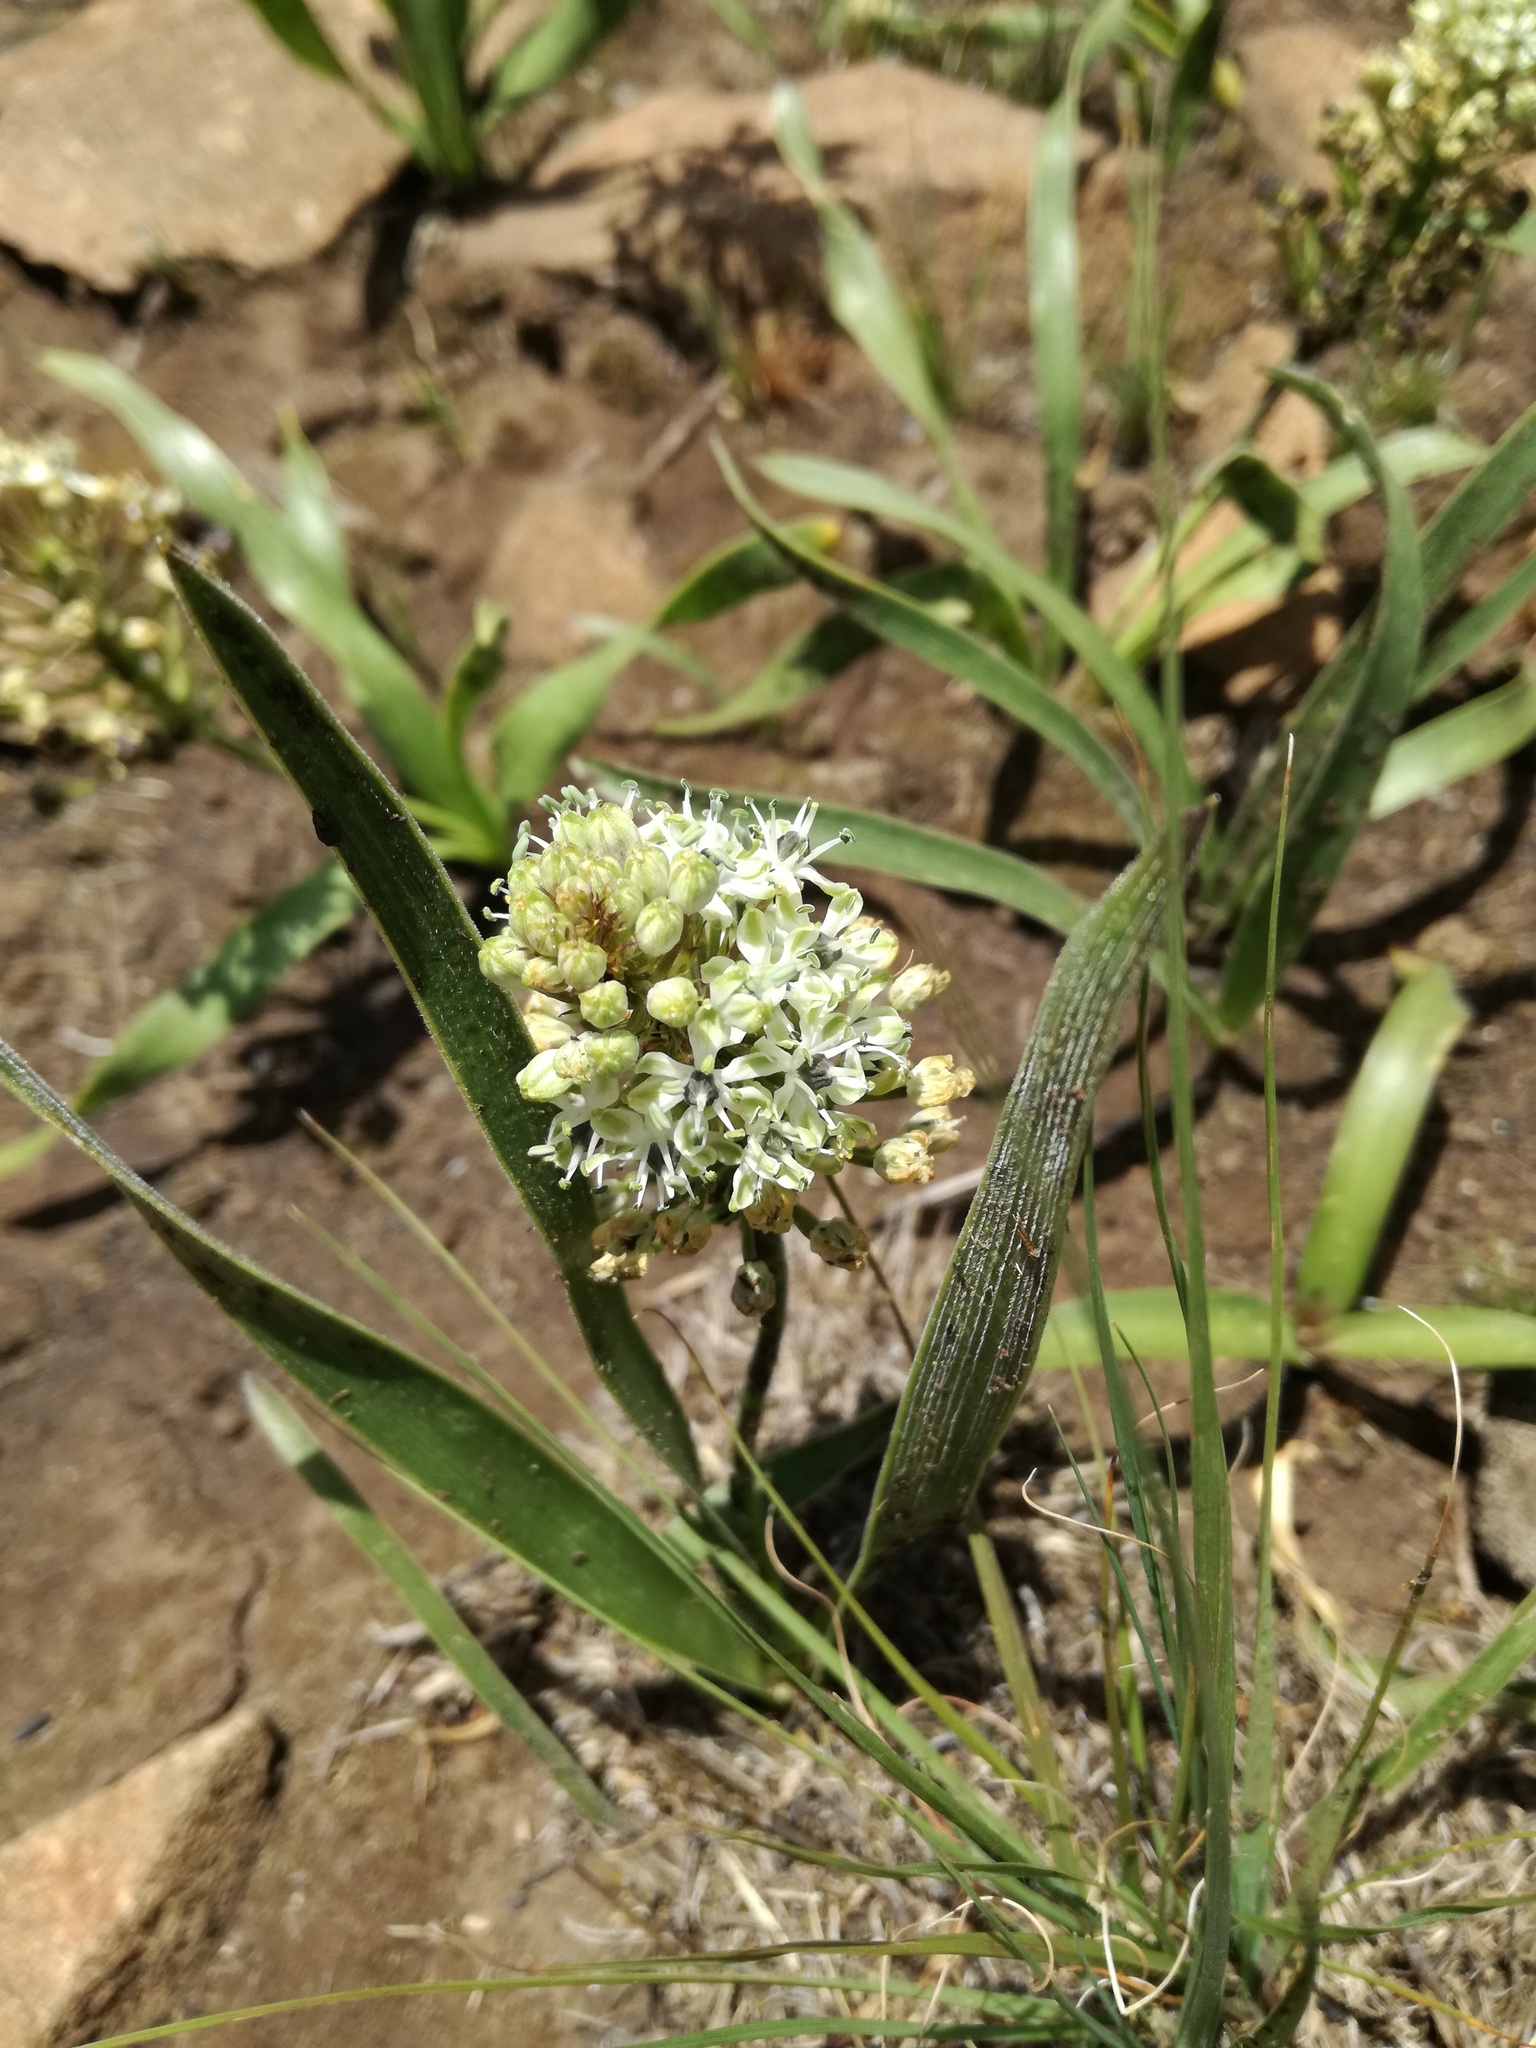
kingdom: Plantae
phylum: Tracheophyta
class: Liliopsida
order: Asparagales
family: Asparagaceae
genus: Schizocarphus
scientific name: Schizocarphus nervosus
